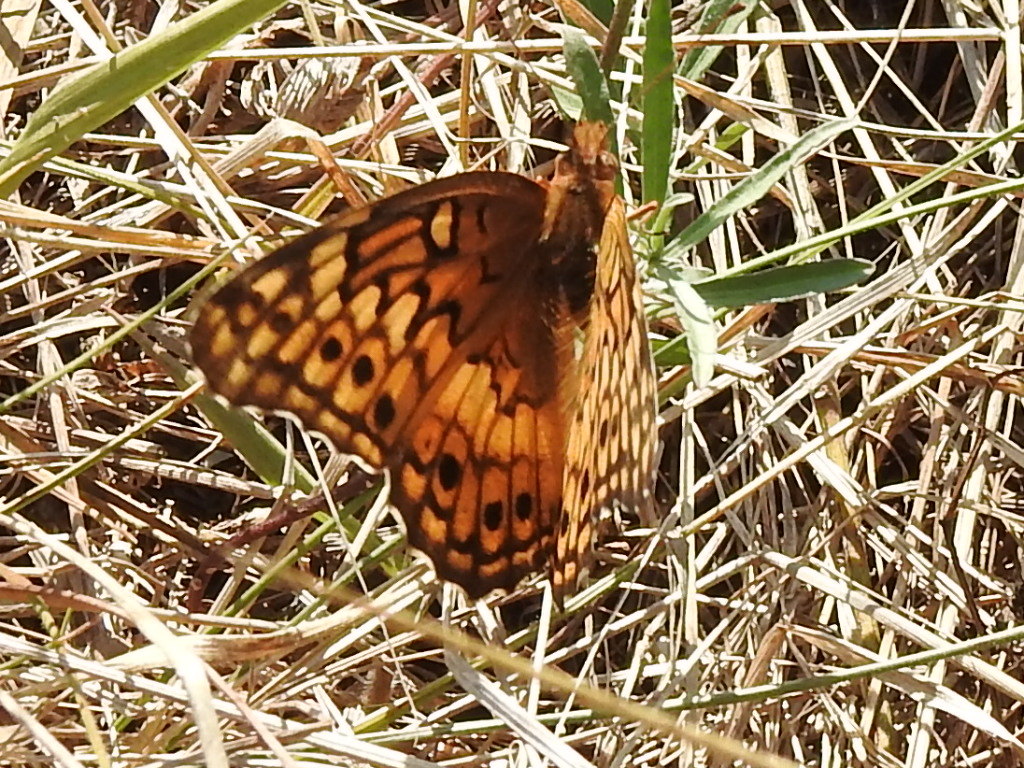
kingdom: Animalia
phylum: Arthropoda
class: Insecta
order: Lepidoptera
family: Nymphalidae
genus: Euptoieta
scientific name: Euptoieta claudia
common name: Variegated fritillary
